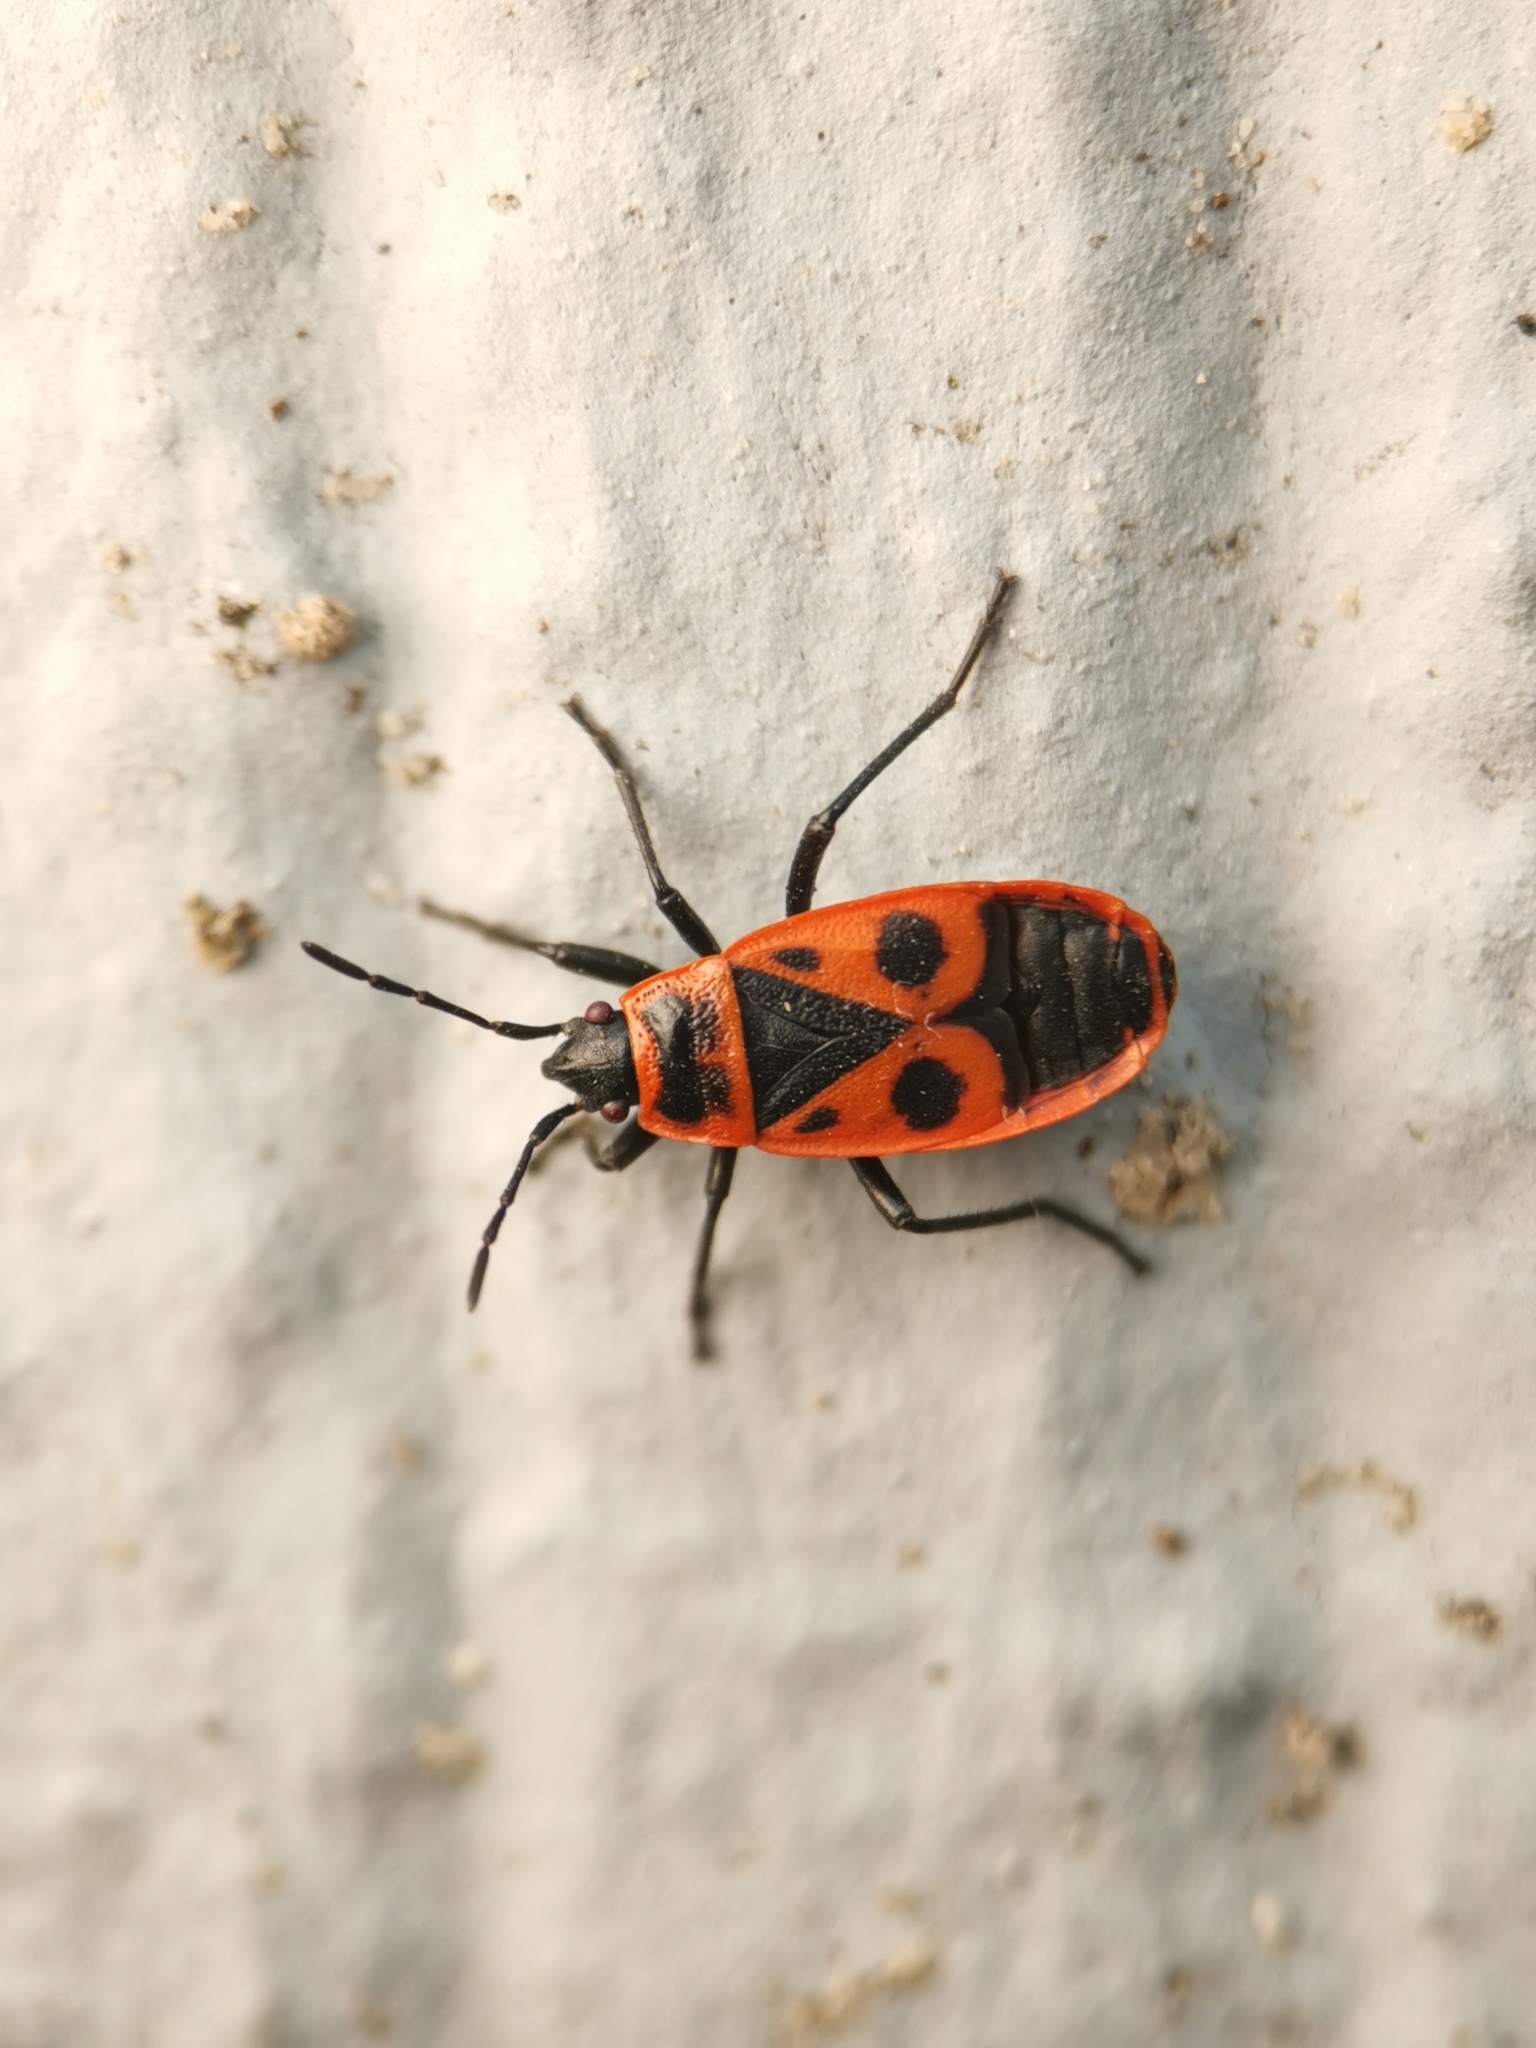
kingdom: Animalia
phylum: Arthropoda
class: Insecta
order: Hemiptera
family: Pyrrhocoridae
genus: Pyrrhocoris
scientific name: Pyrrhocoris apterus
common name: Firebug
